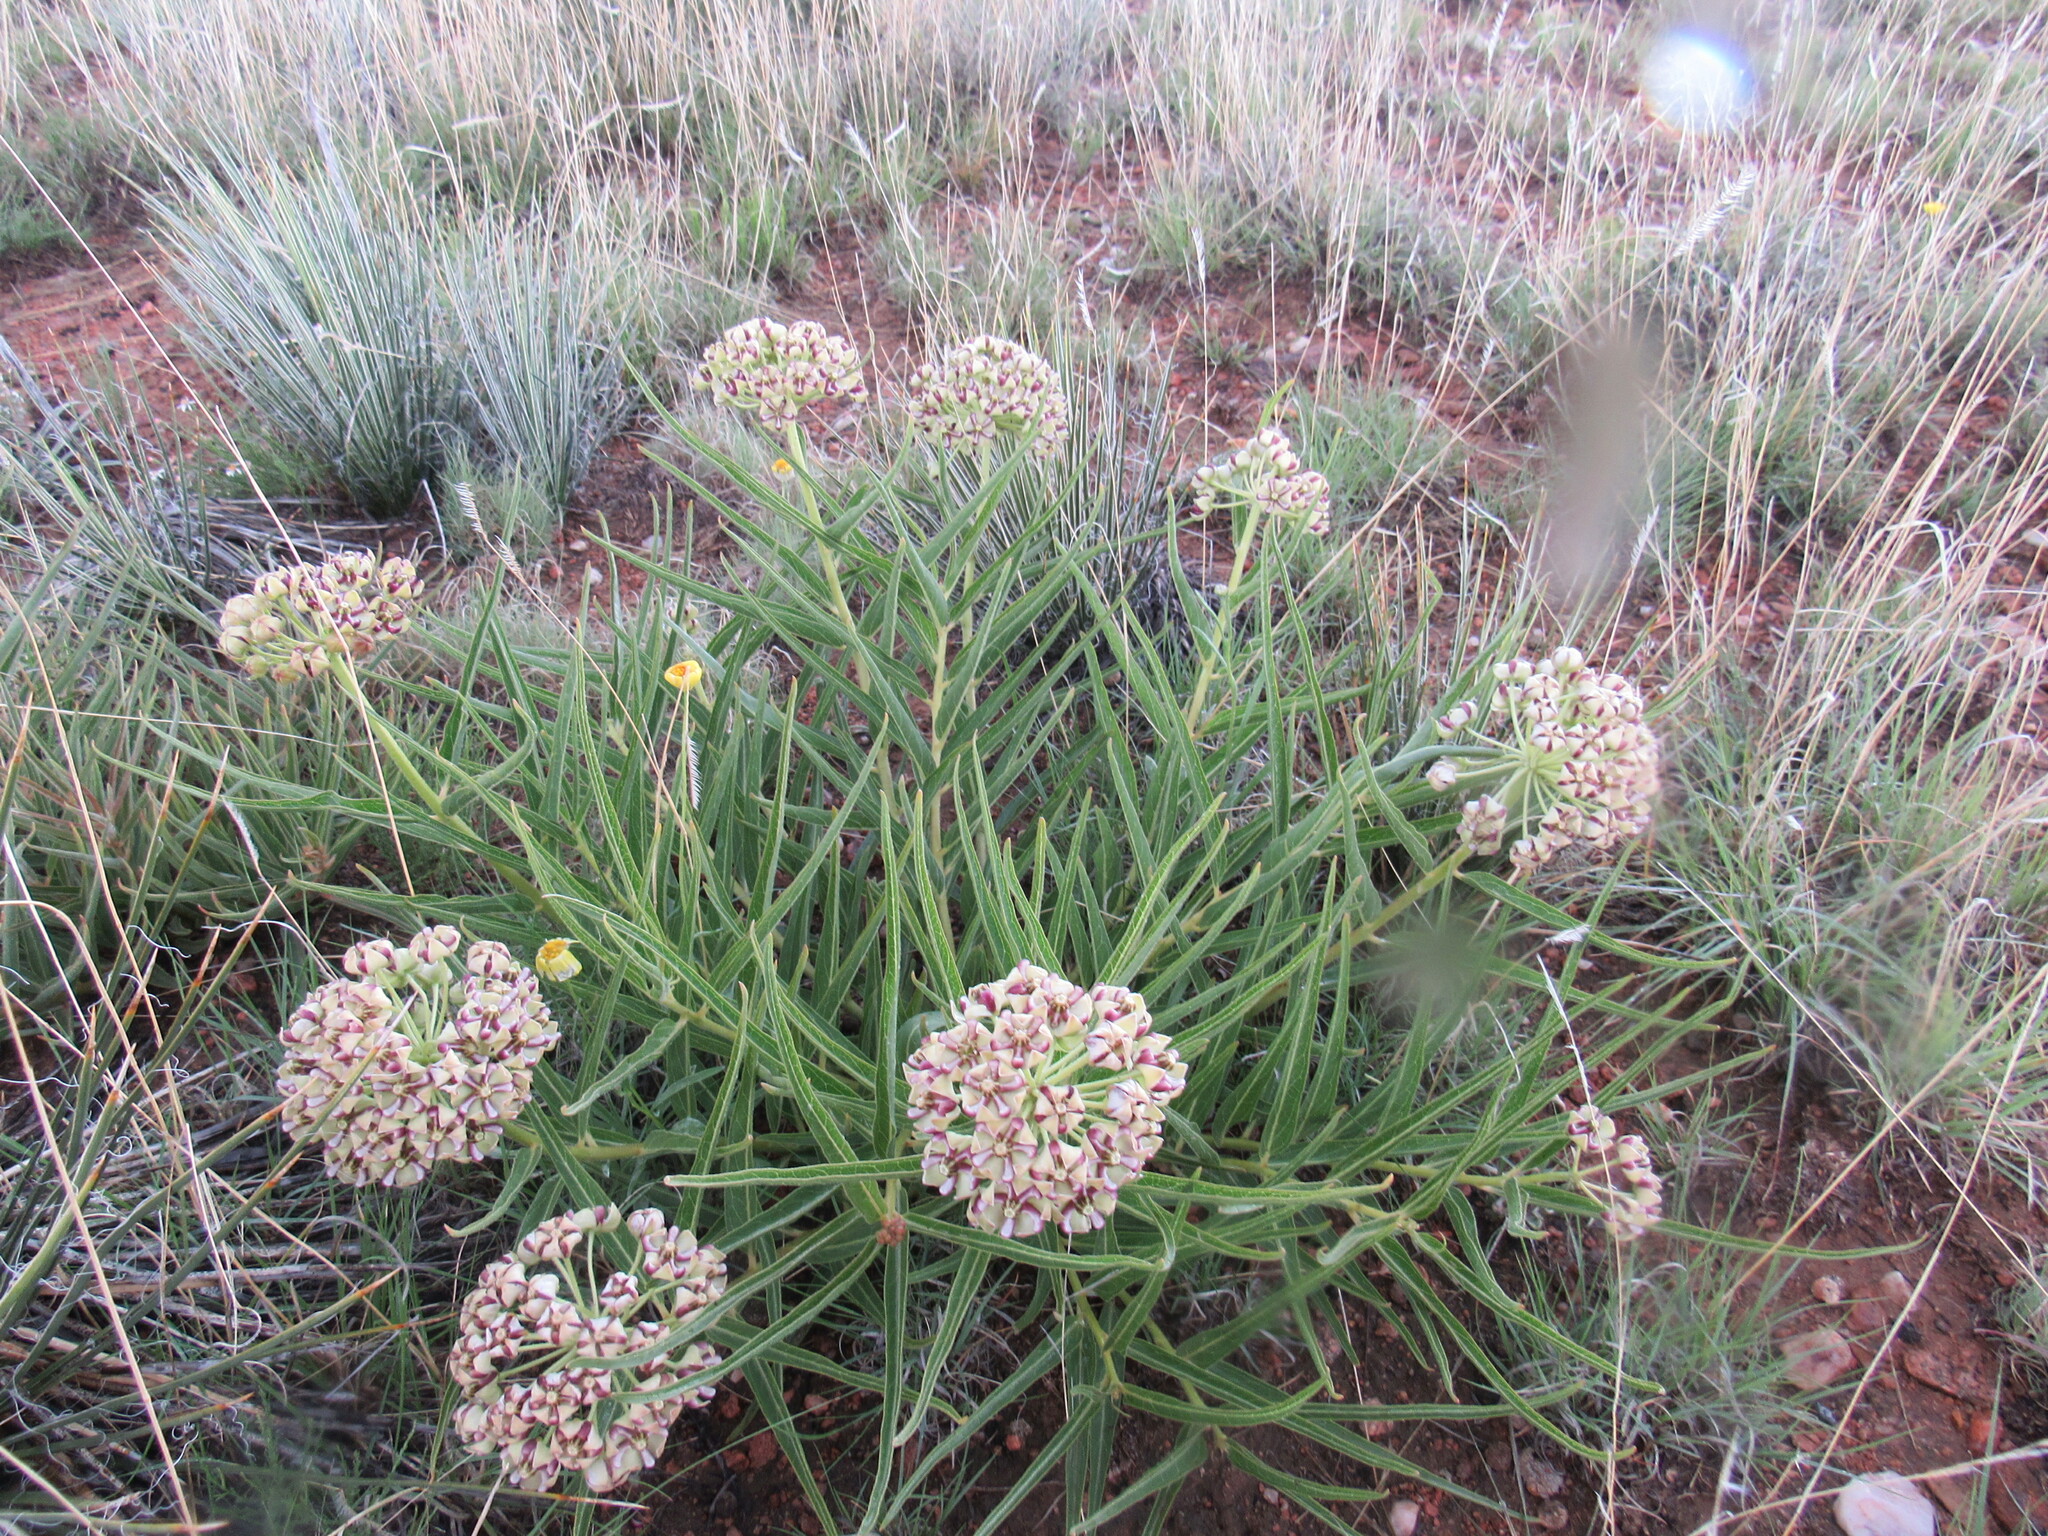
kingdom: Plantae
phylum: Tracheophyta
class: Magnoliopsida
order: Gentianales
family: Apocynaceae
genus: Asclepias
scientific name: Asclepias asperula
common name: Antelope horns
